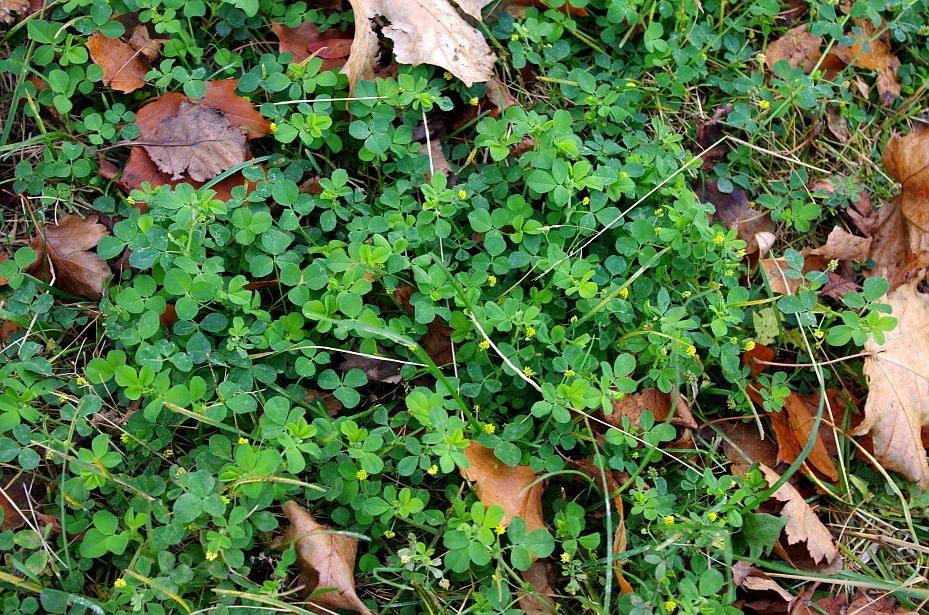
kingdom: Plantae
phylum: Tracheophyta
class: Magnoliopsida
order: Fabales
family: Fabaceae
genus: Medicago
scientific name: Medicago lupulina
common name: Black medick
